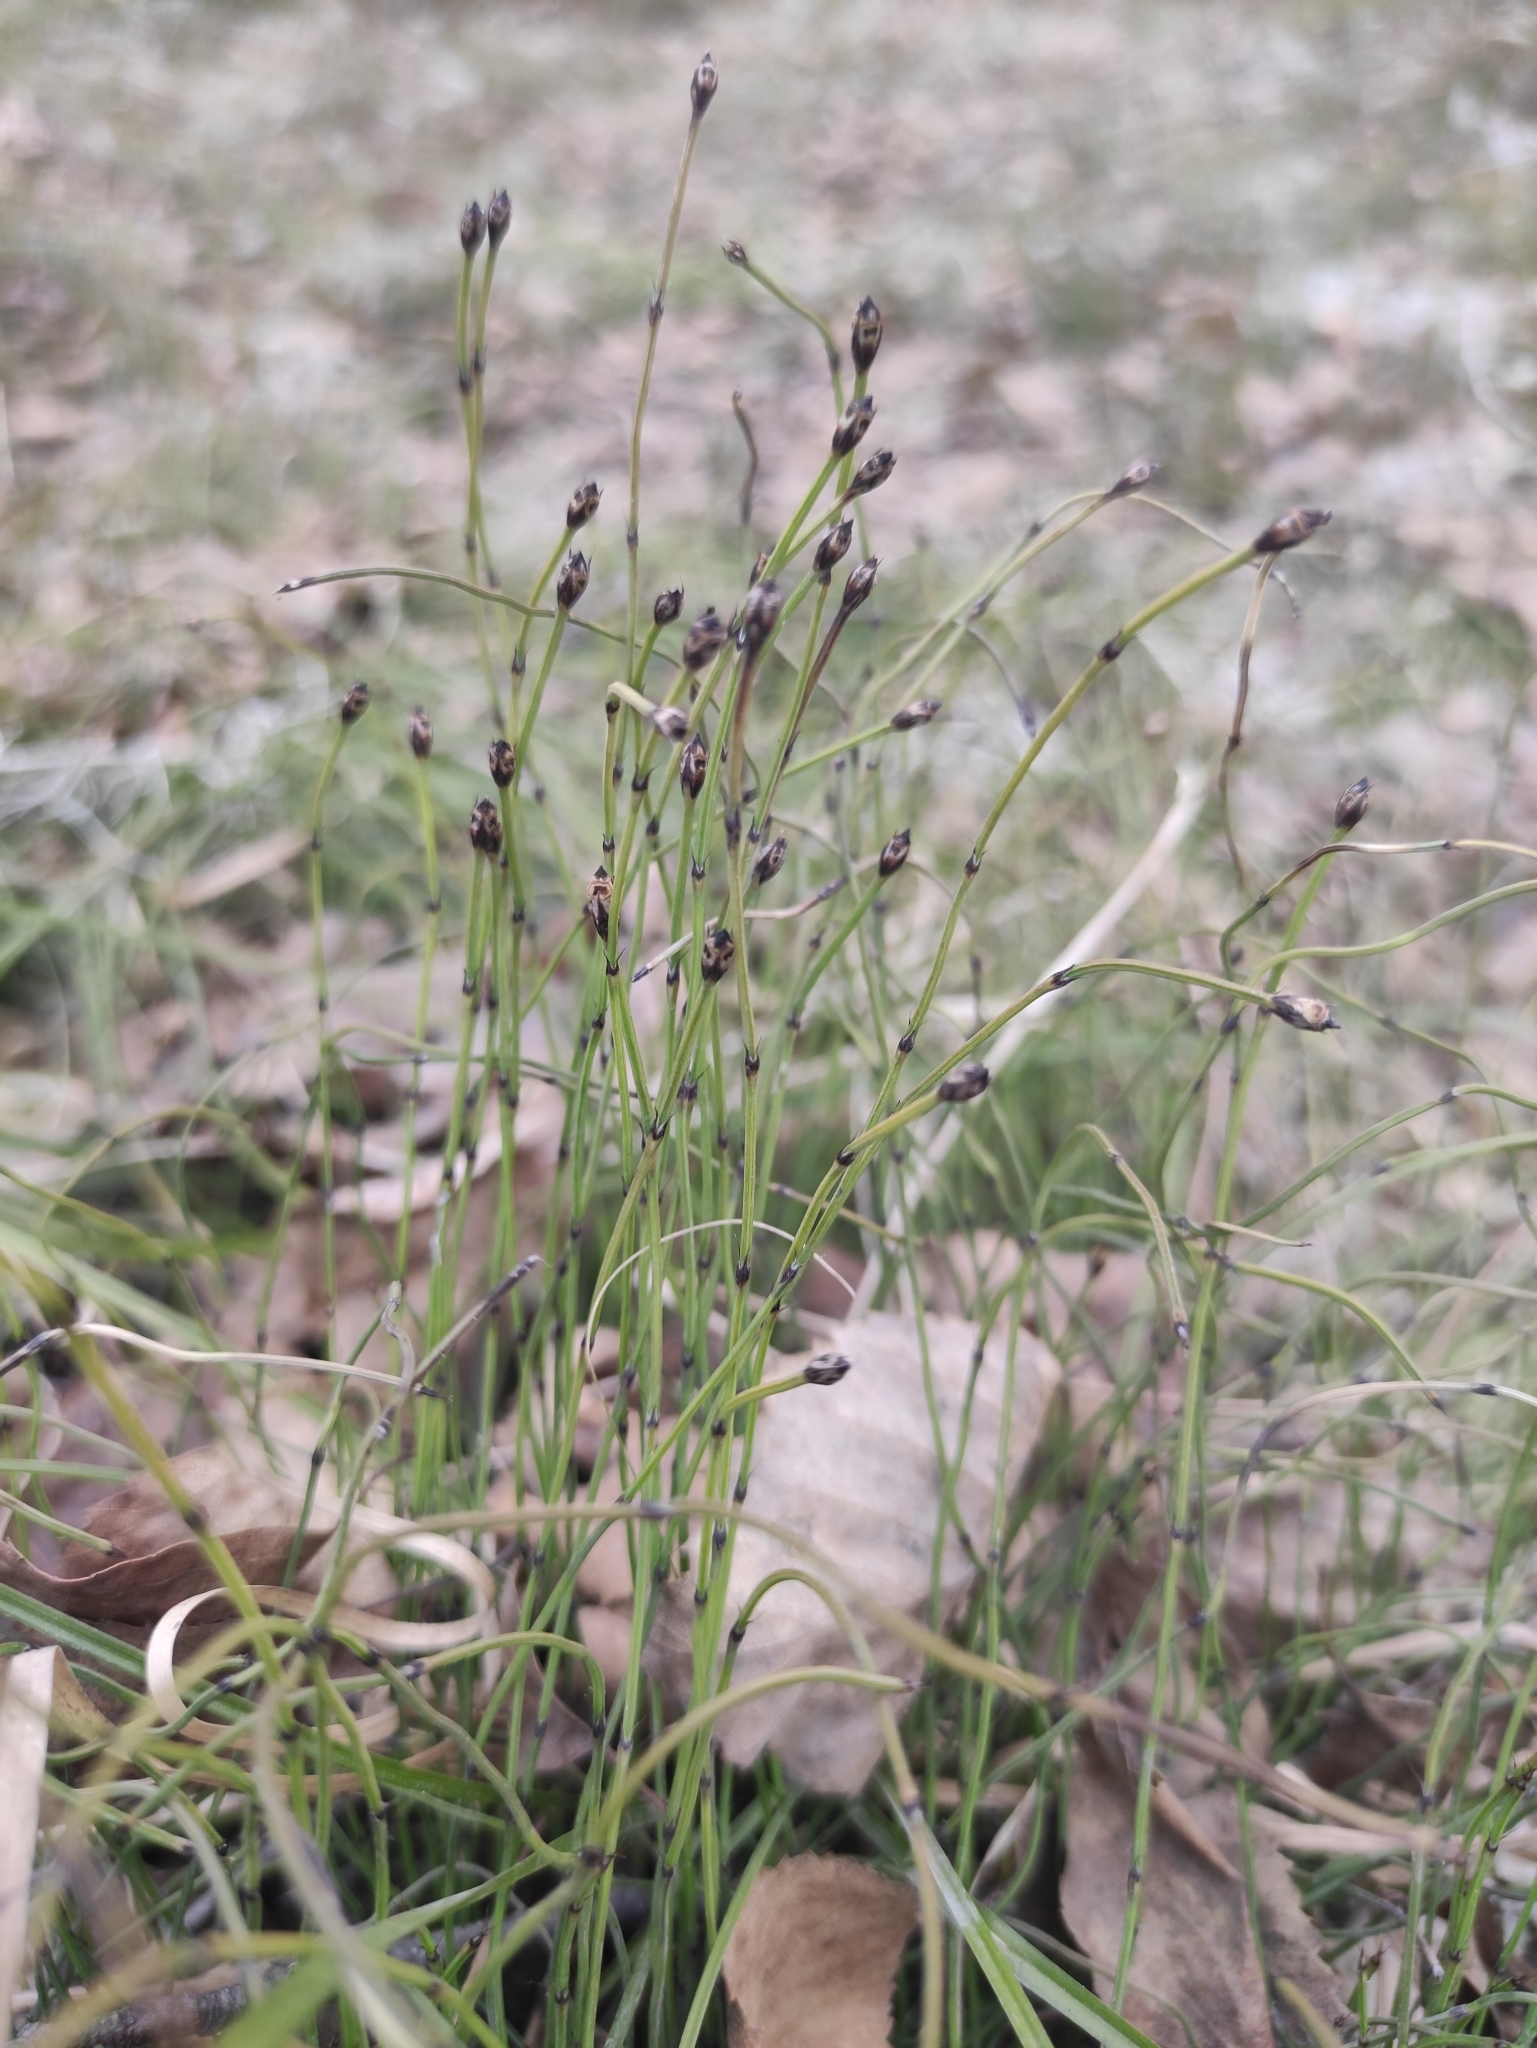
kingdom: Plantae
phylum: Tracheophyta
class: Polypodiopsida
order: Equisetales
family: Equisetaceae
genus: Equisetum
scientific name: Equisetum scirpoides
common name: Delicate horsetail
